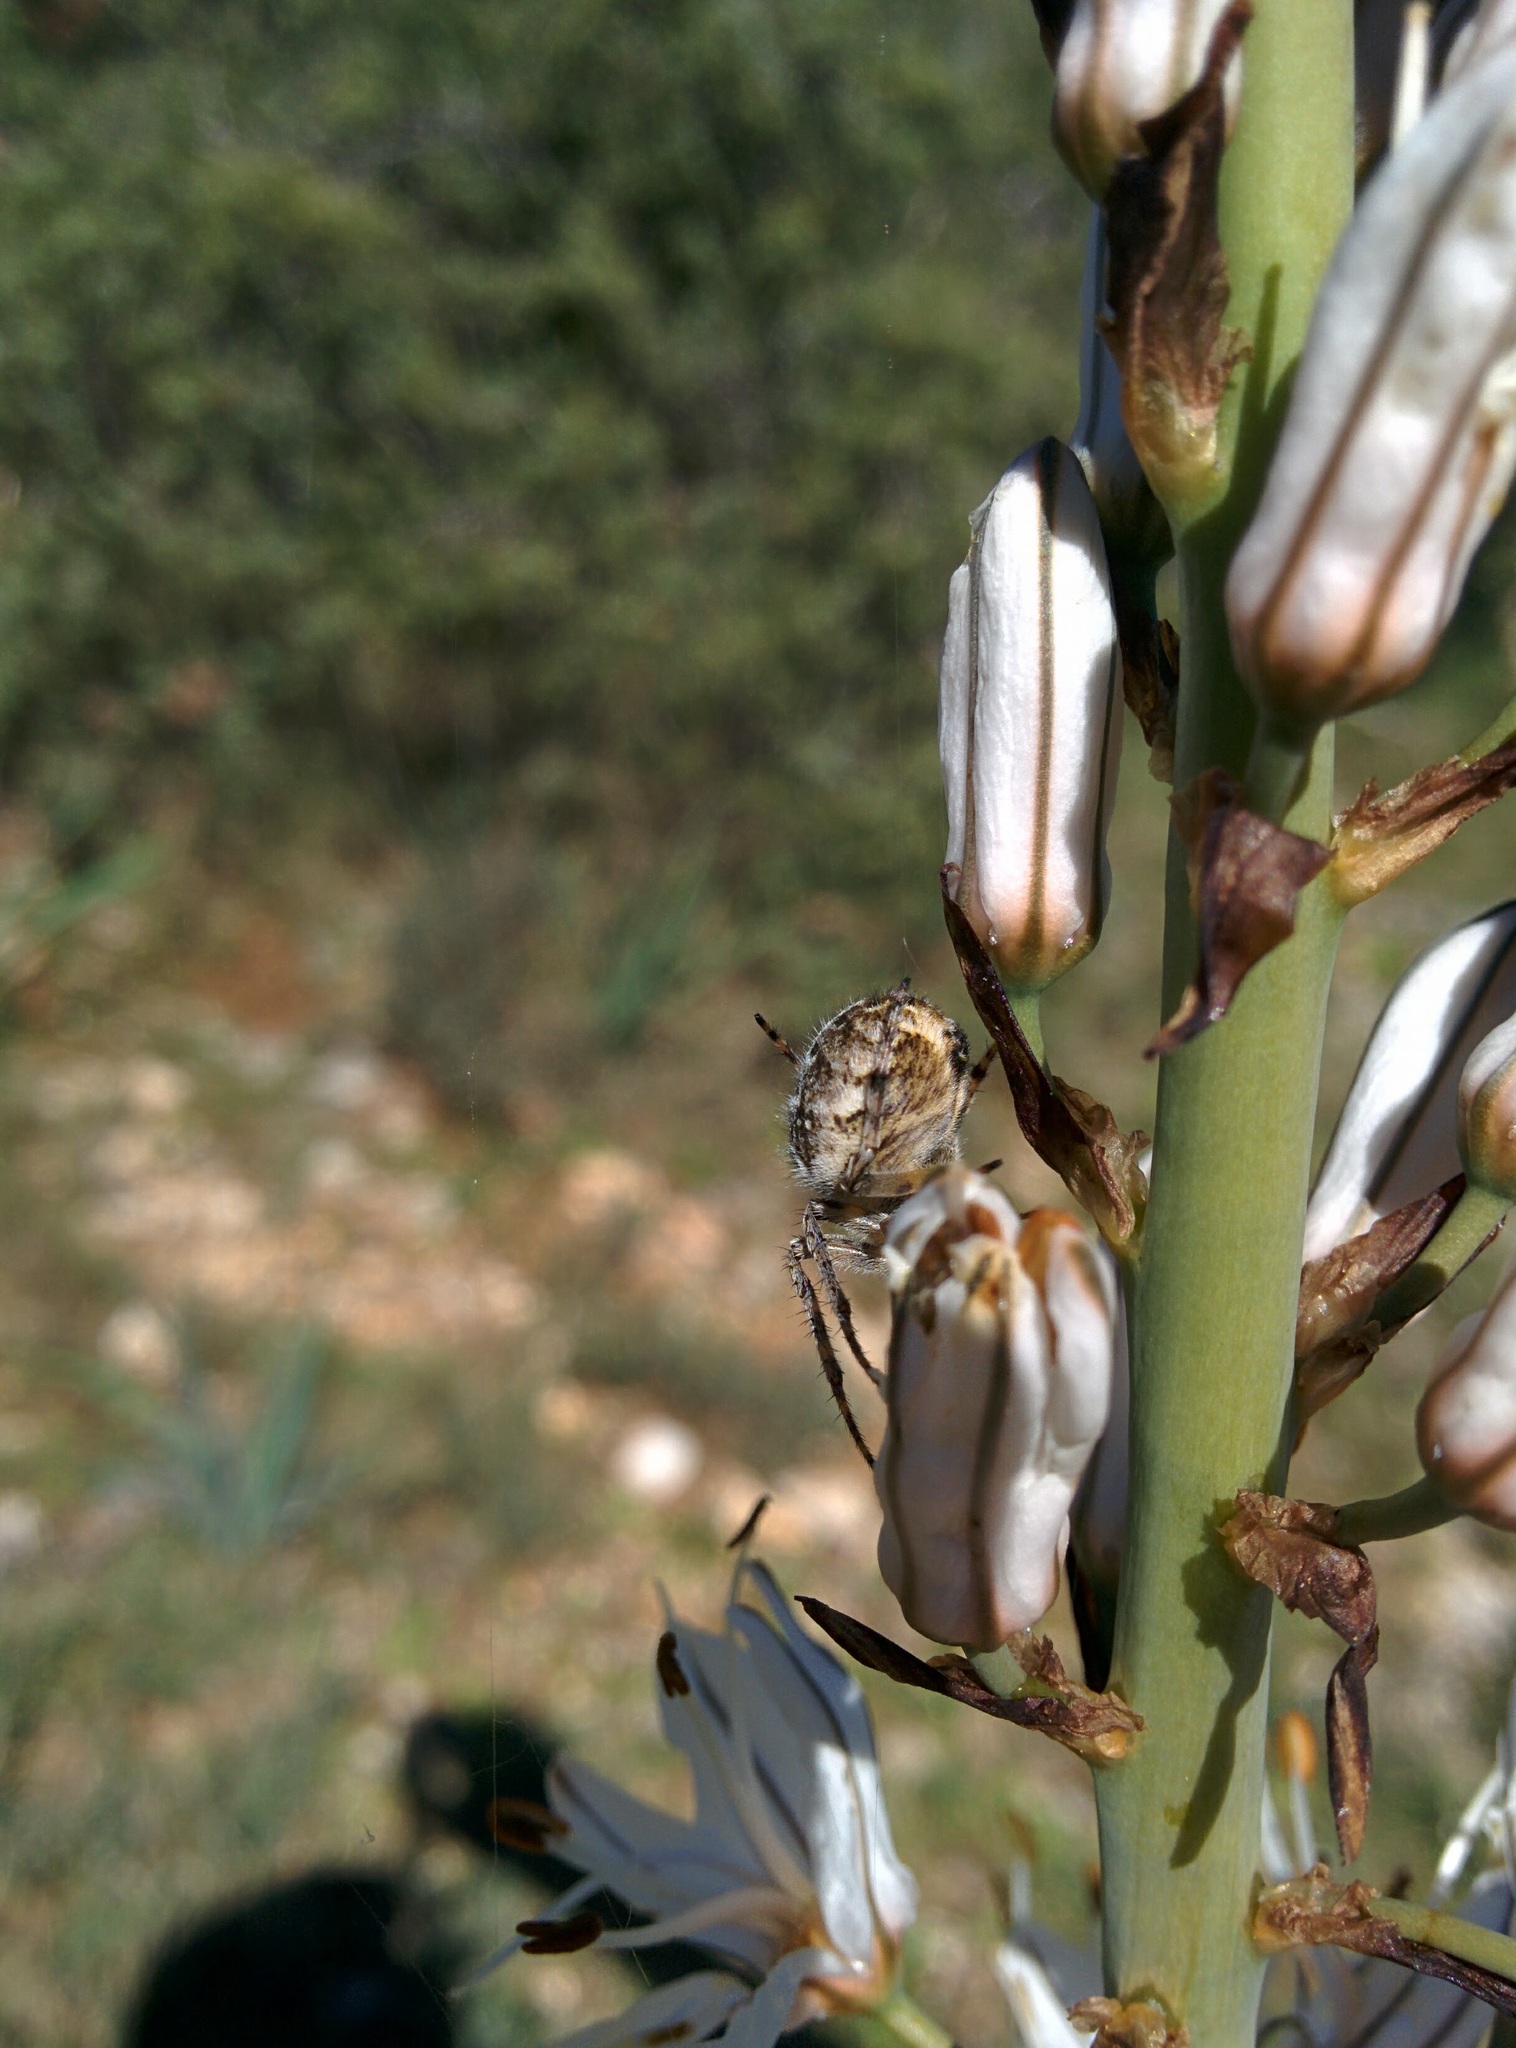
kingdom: Animalia
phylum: Arthropoda
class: Arachnida
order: Araneae
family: Araneidae
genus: Agalenatea
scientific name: Agalenatea redii
